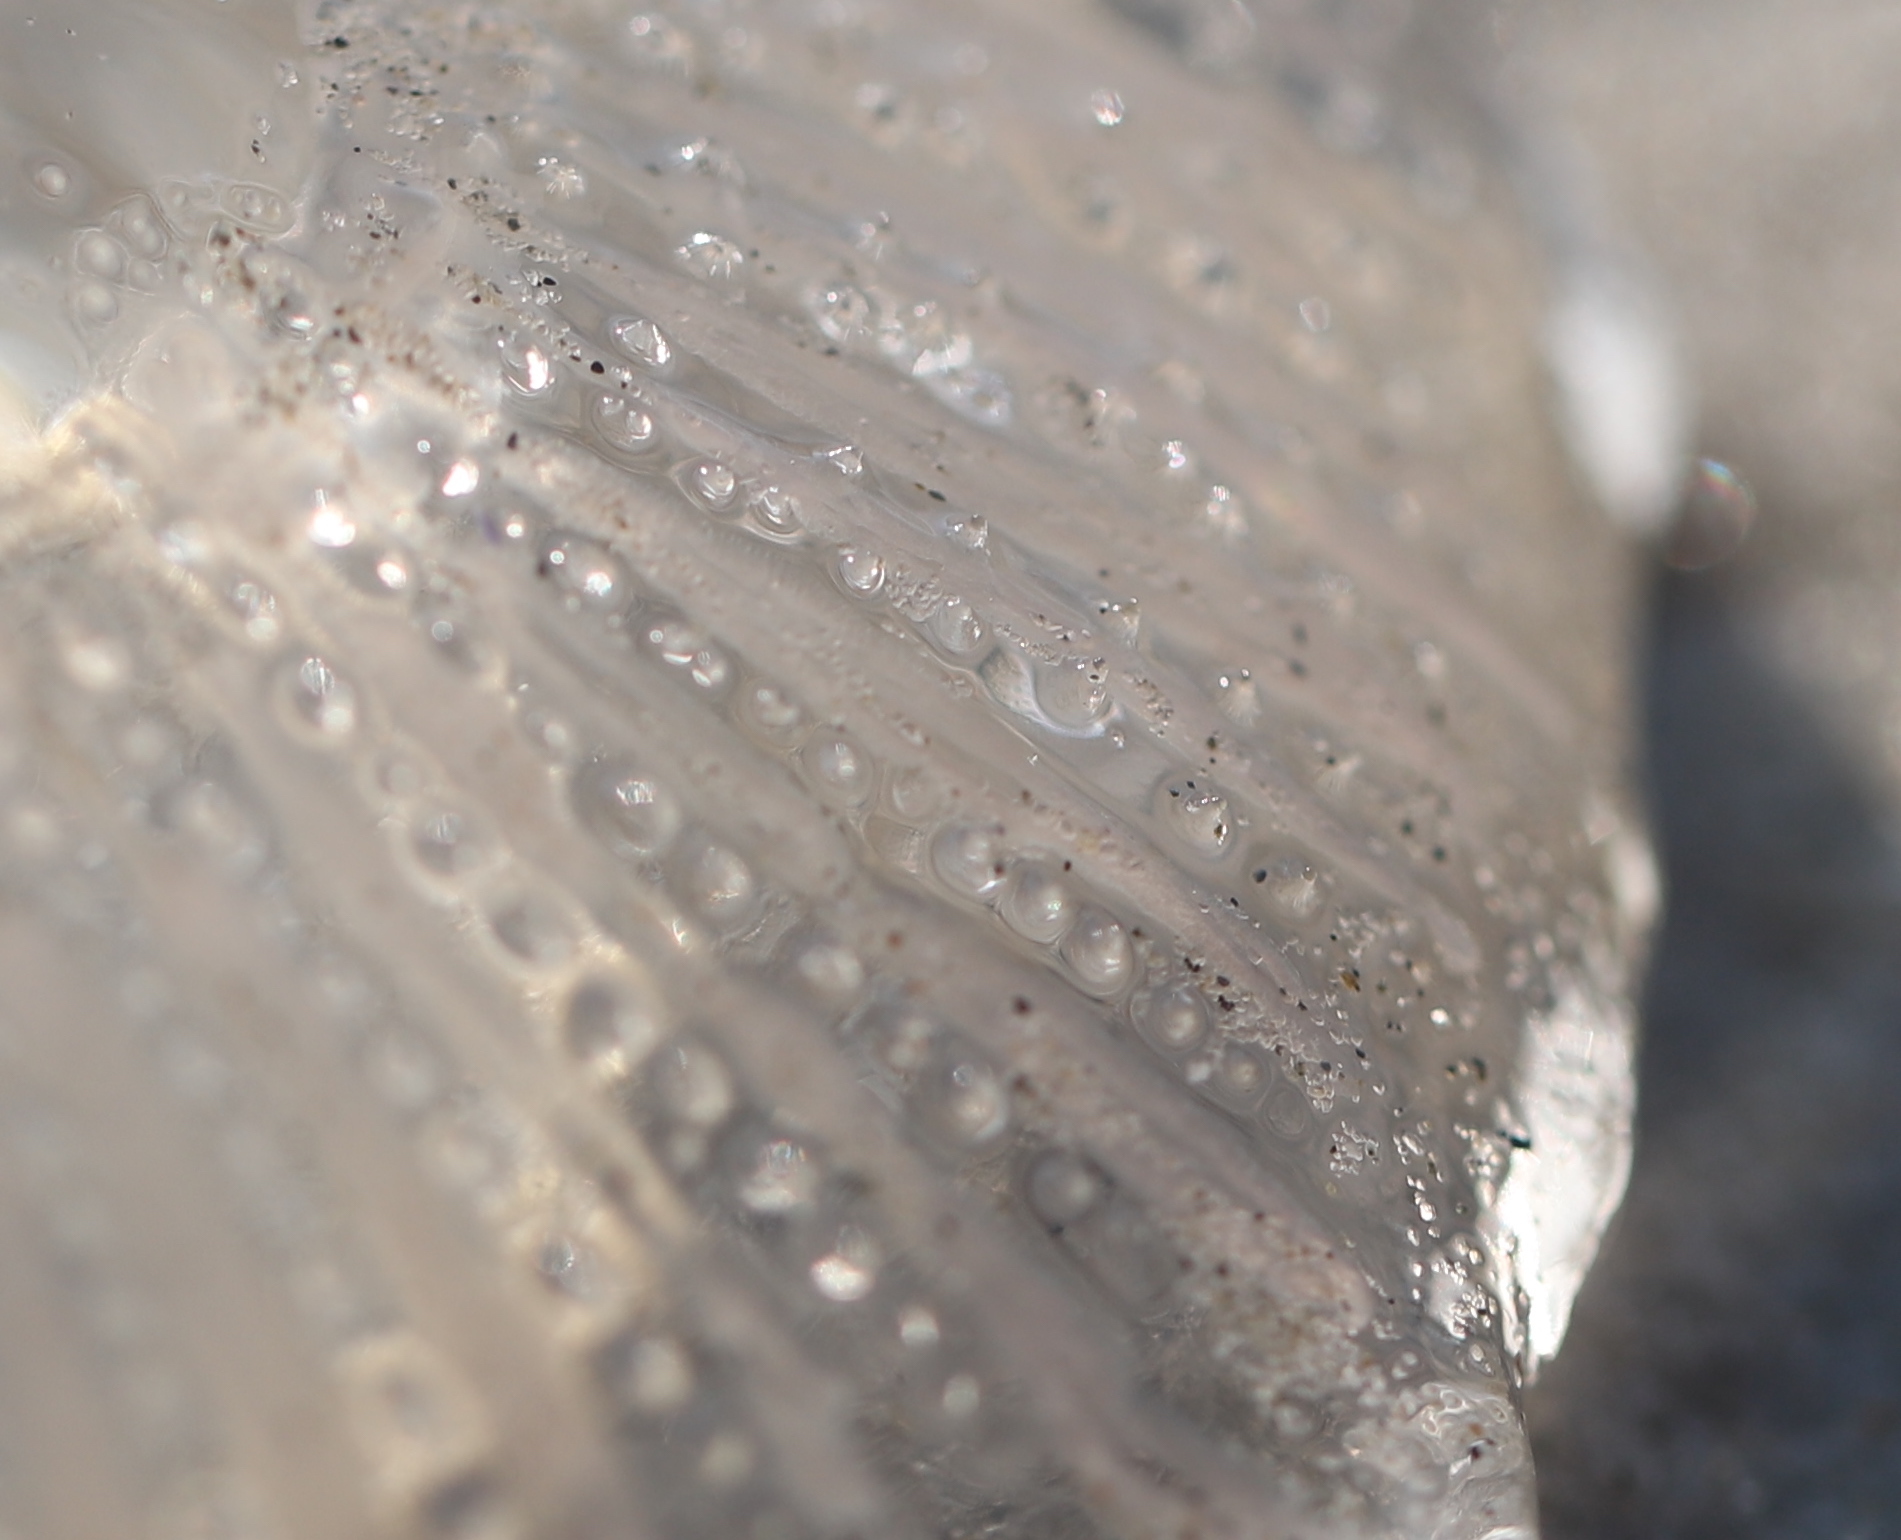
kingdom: Animalia
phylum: Cnidaria
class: Hydrozoa
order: Leptothecata
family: Aequoreidae
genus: Rhacostoma
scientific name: Rhacostoma atlanticum
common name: Lined water jelly
